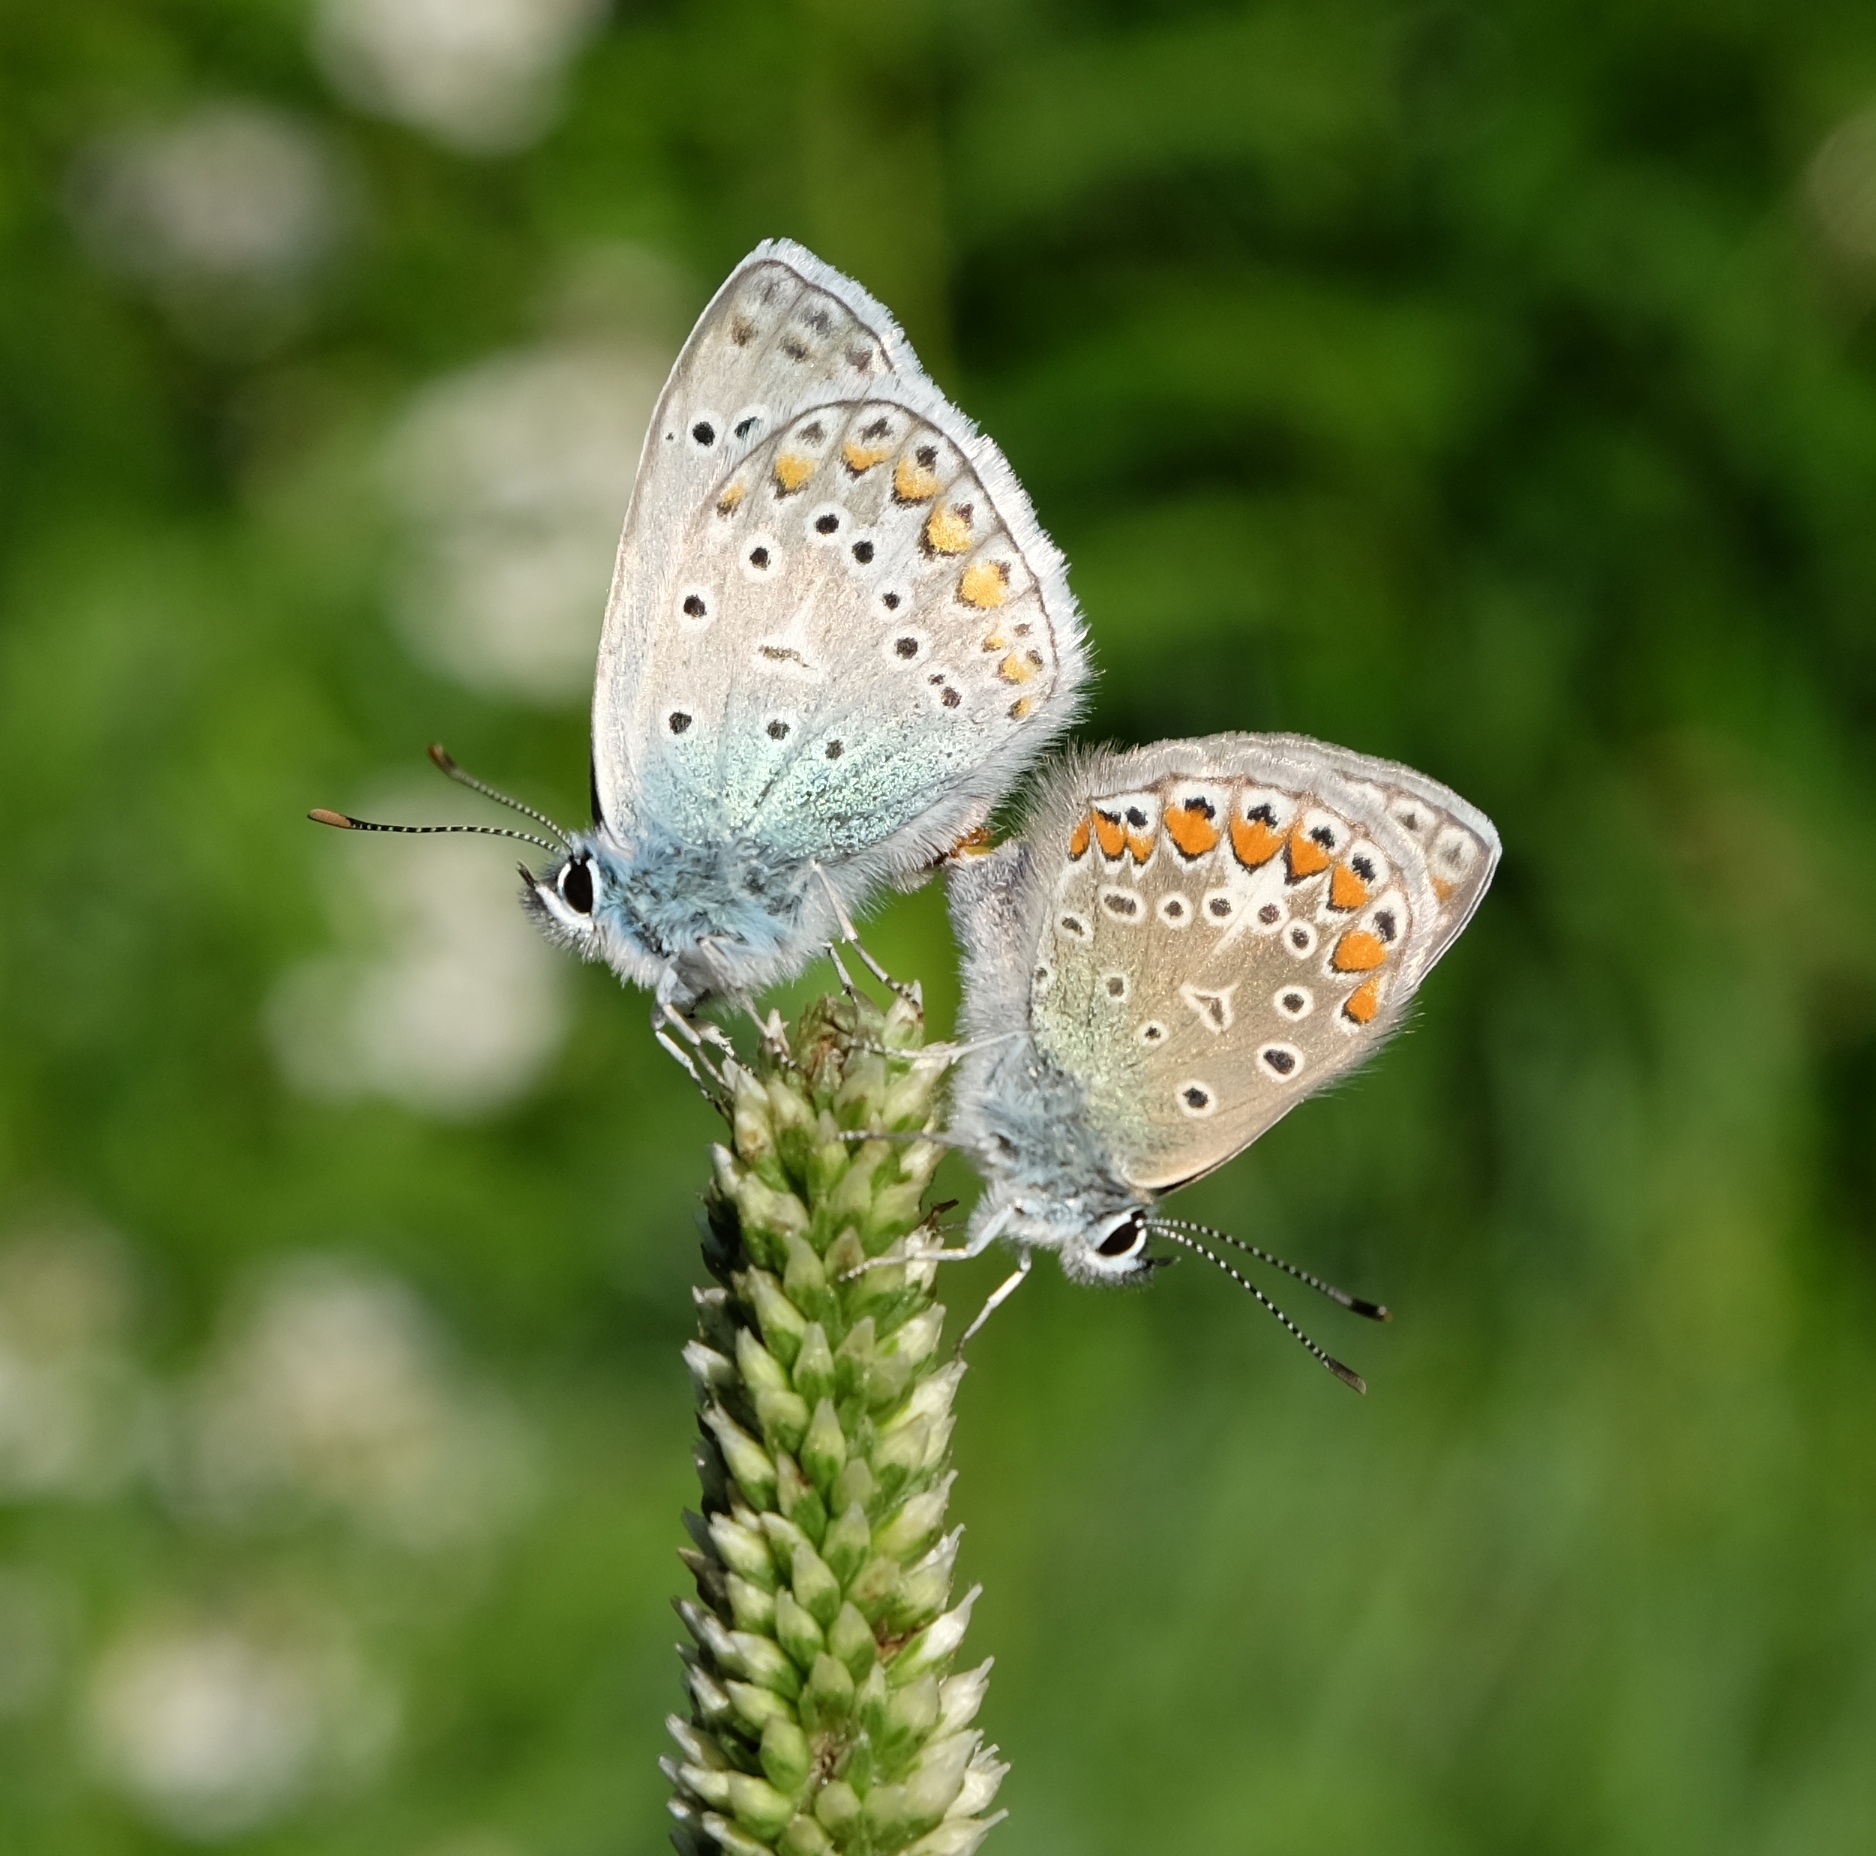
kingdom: Animalia
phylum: Arthropoda
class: Insecta
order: Lepidoptera
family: Lycaenidae
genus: Polyommatus
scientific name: Polyommatus icarus
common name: Common blue
